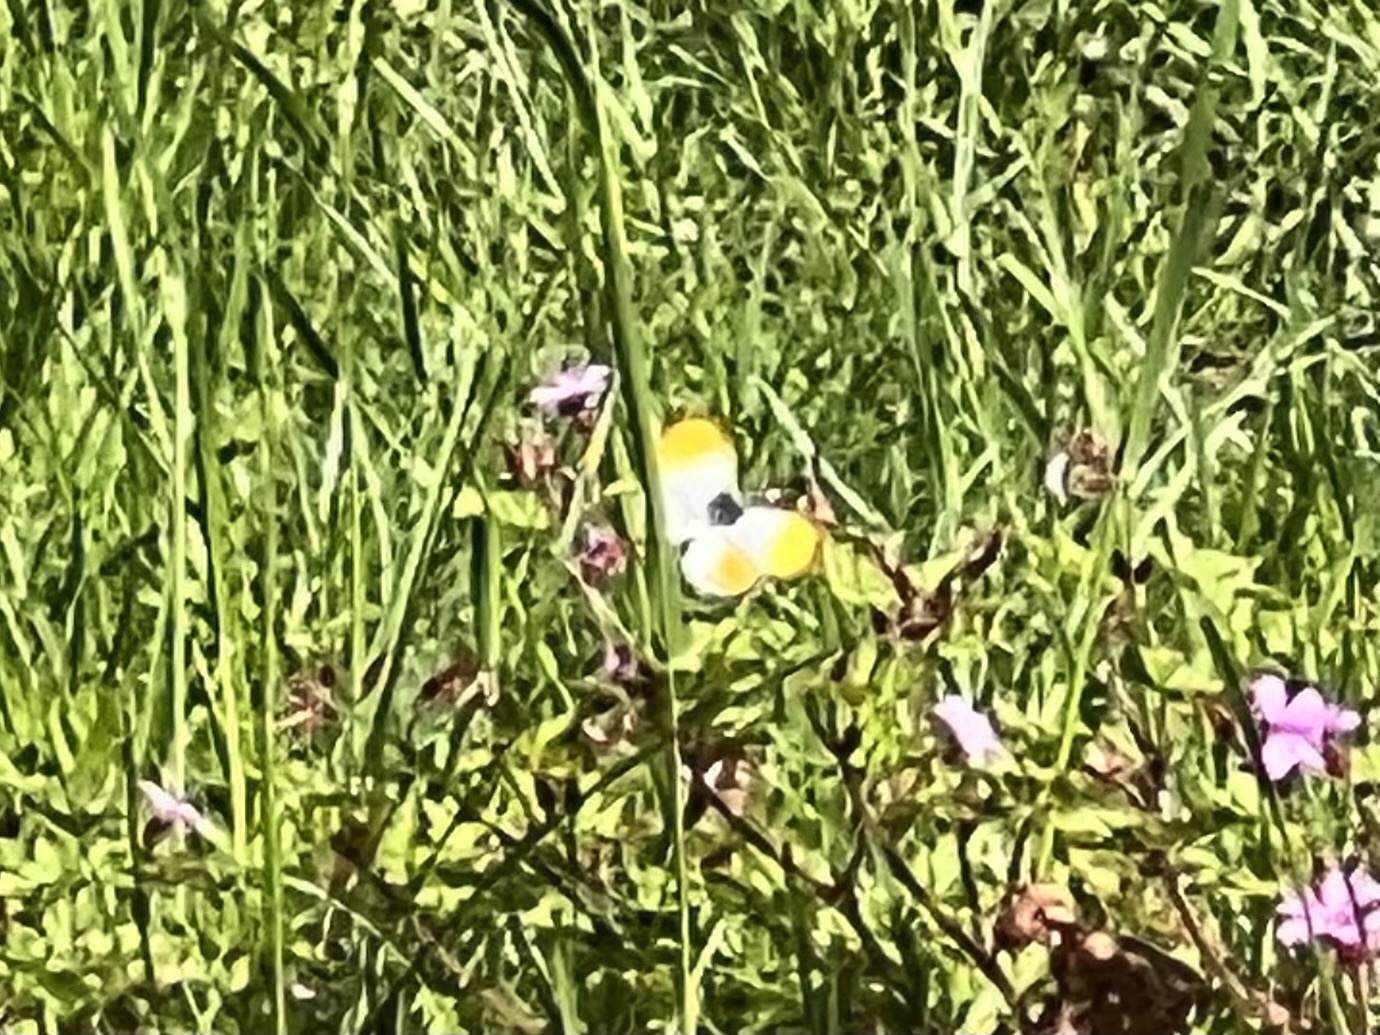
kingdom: Animalia
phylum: Arthropoda
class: Insecta
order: Lepidoptera
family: Pieridae
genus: Anthocharis
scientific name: Anthocharis cardamines
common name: Orange-tip
